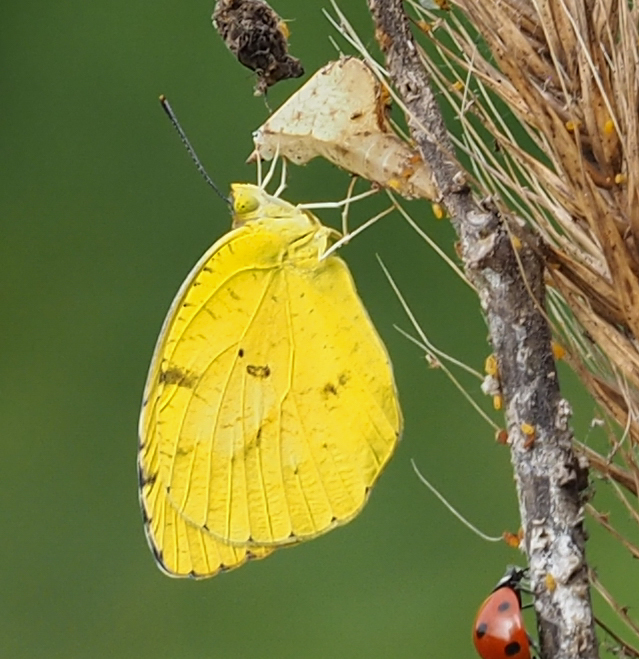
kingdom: Animalia
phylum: Arthropoda
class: Insecta
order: Lepidoptera
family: Pieridae
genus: Abaeis
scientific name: Abaeis nicippe
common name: Sleepy orange
